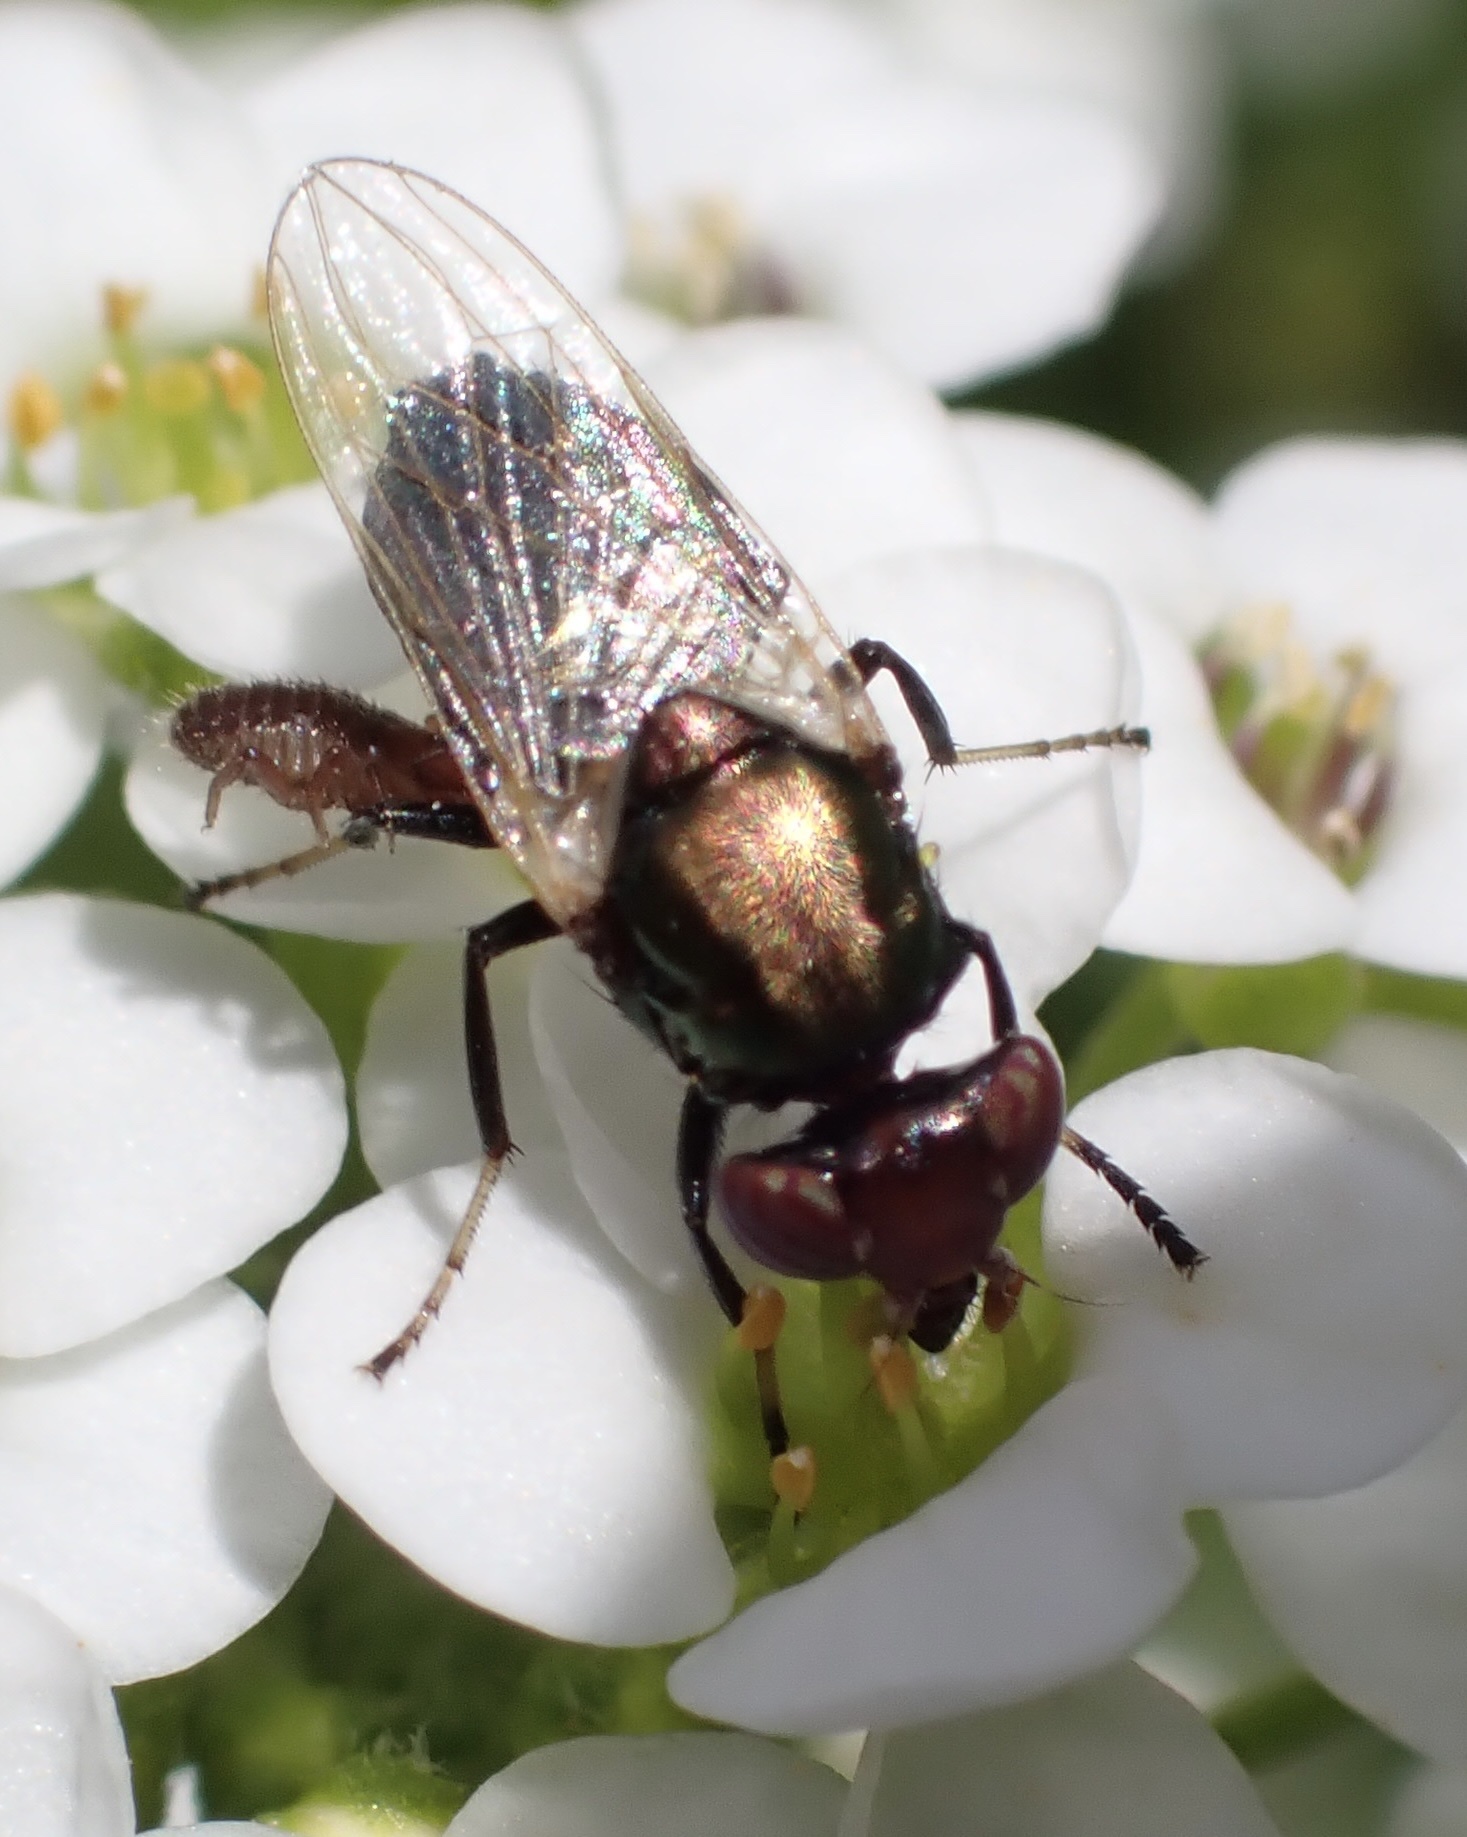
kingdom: Animalia
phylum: Arthropoda
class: Insecta
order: Diptera
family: Ulidiidae
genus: Physiphora
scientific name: Physiphora alceae
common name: Picture-winged fly
